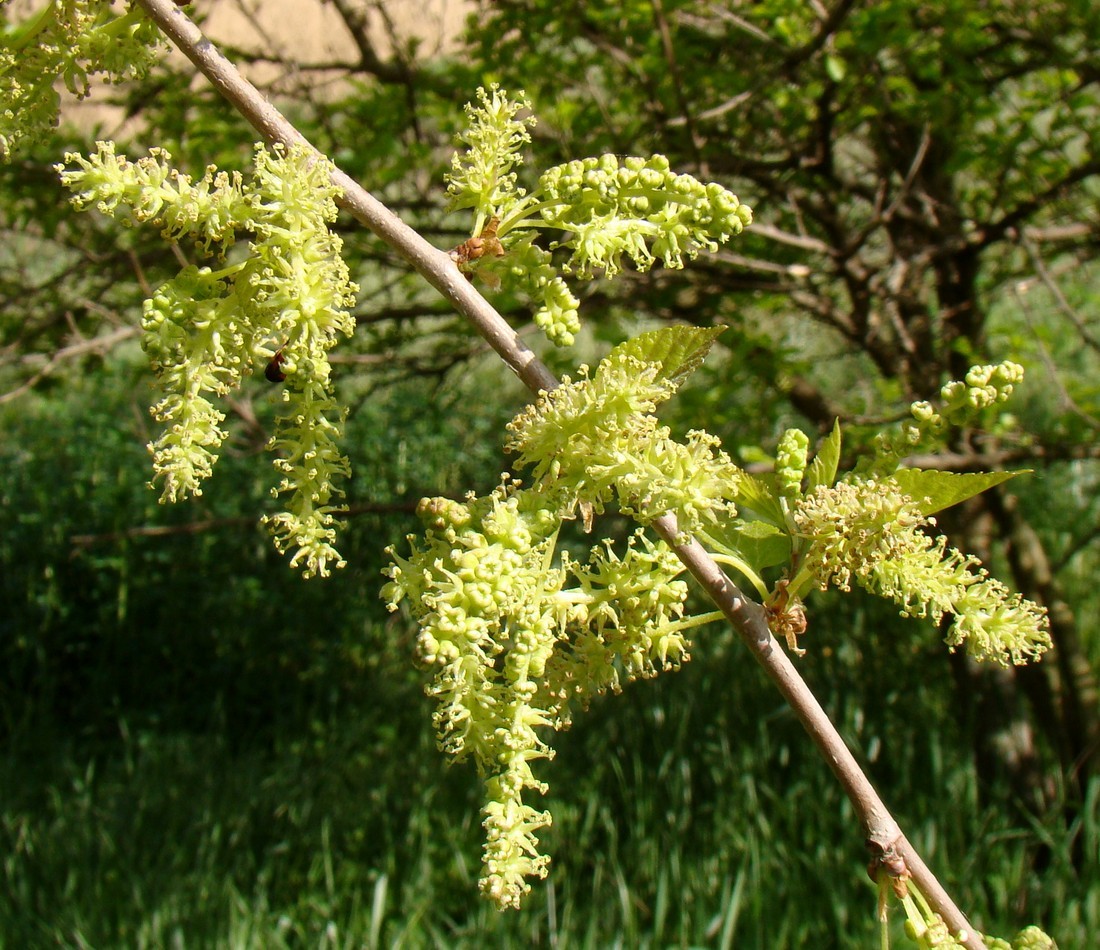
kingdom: Plantae
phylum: Tracheophyta
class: Magnoliopsida
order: Rosales
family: Moraceae
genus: Morus
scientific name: Morus alba
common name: White mulberry
